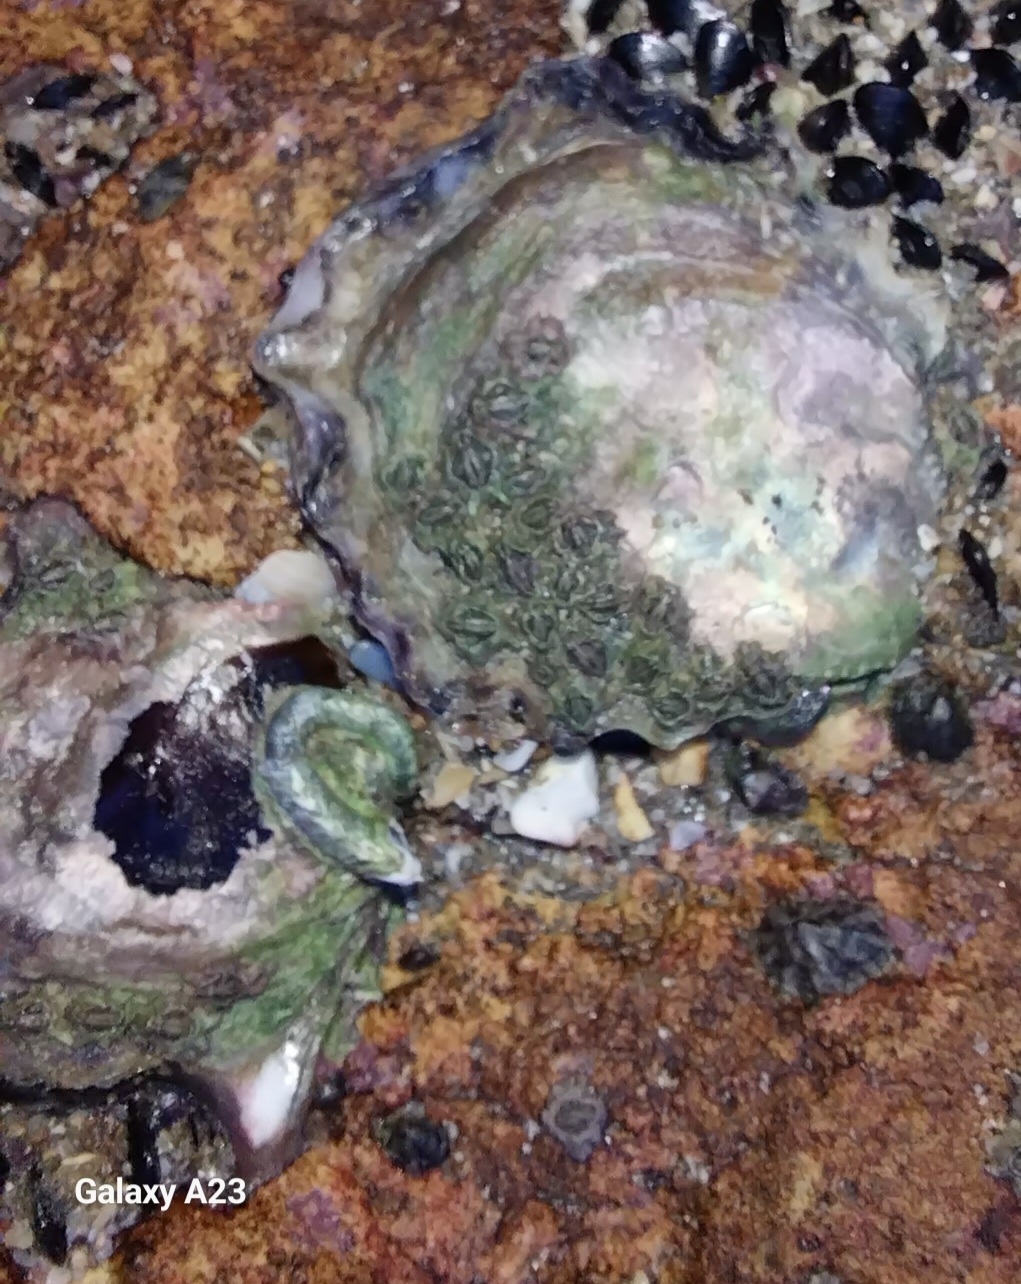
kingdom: Animalia
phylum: Mollusca
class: Bivalvia
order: Ostreida
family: Ostreidae
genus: Saccostrea
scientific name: Saccostrea glomerata
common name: Sydney cupped oyster
